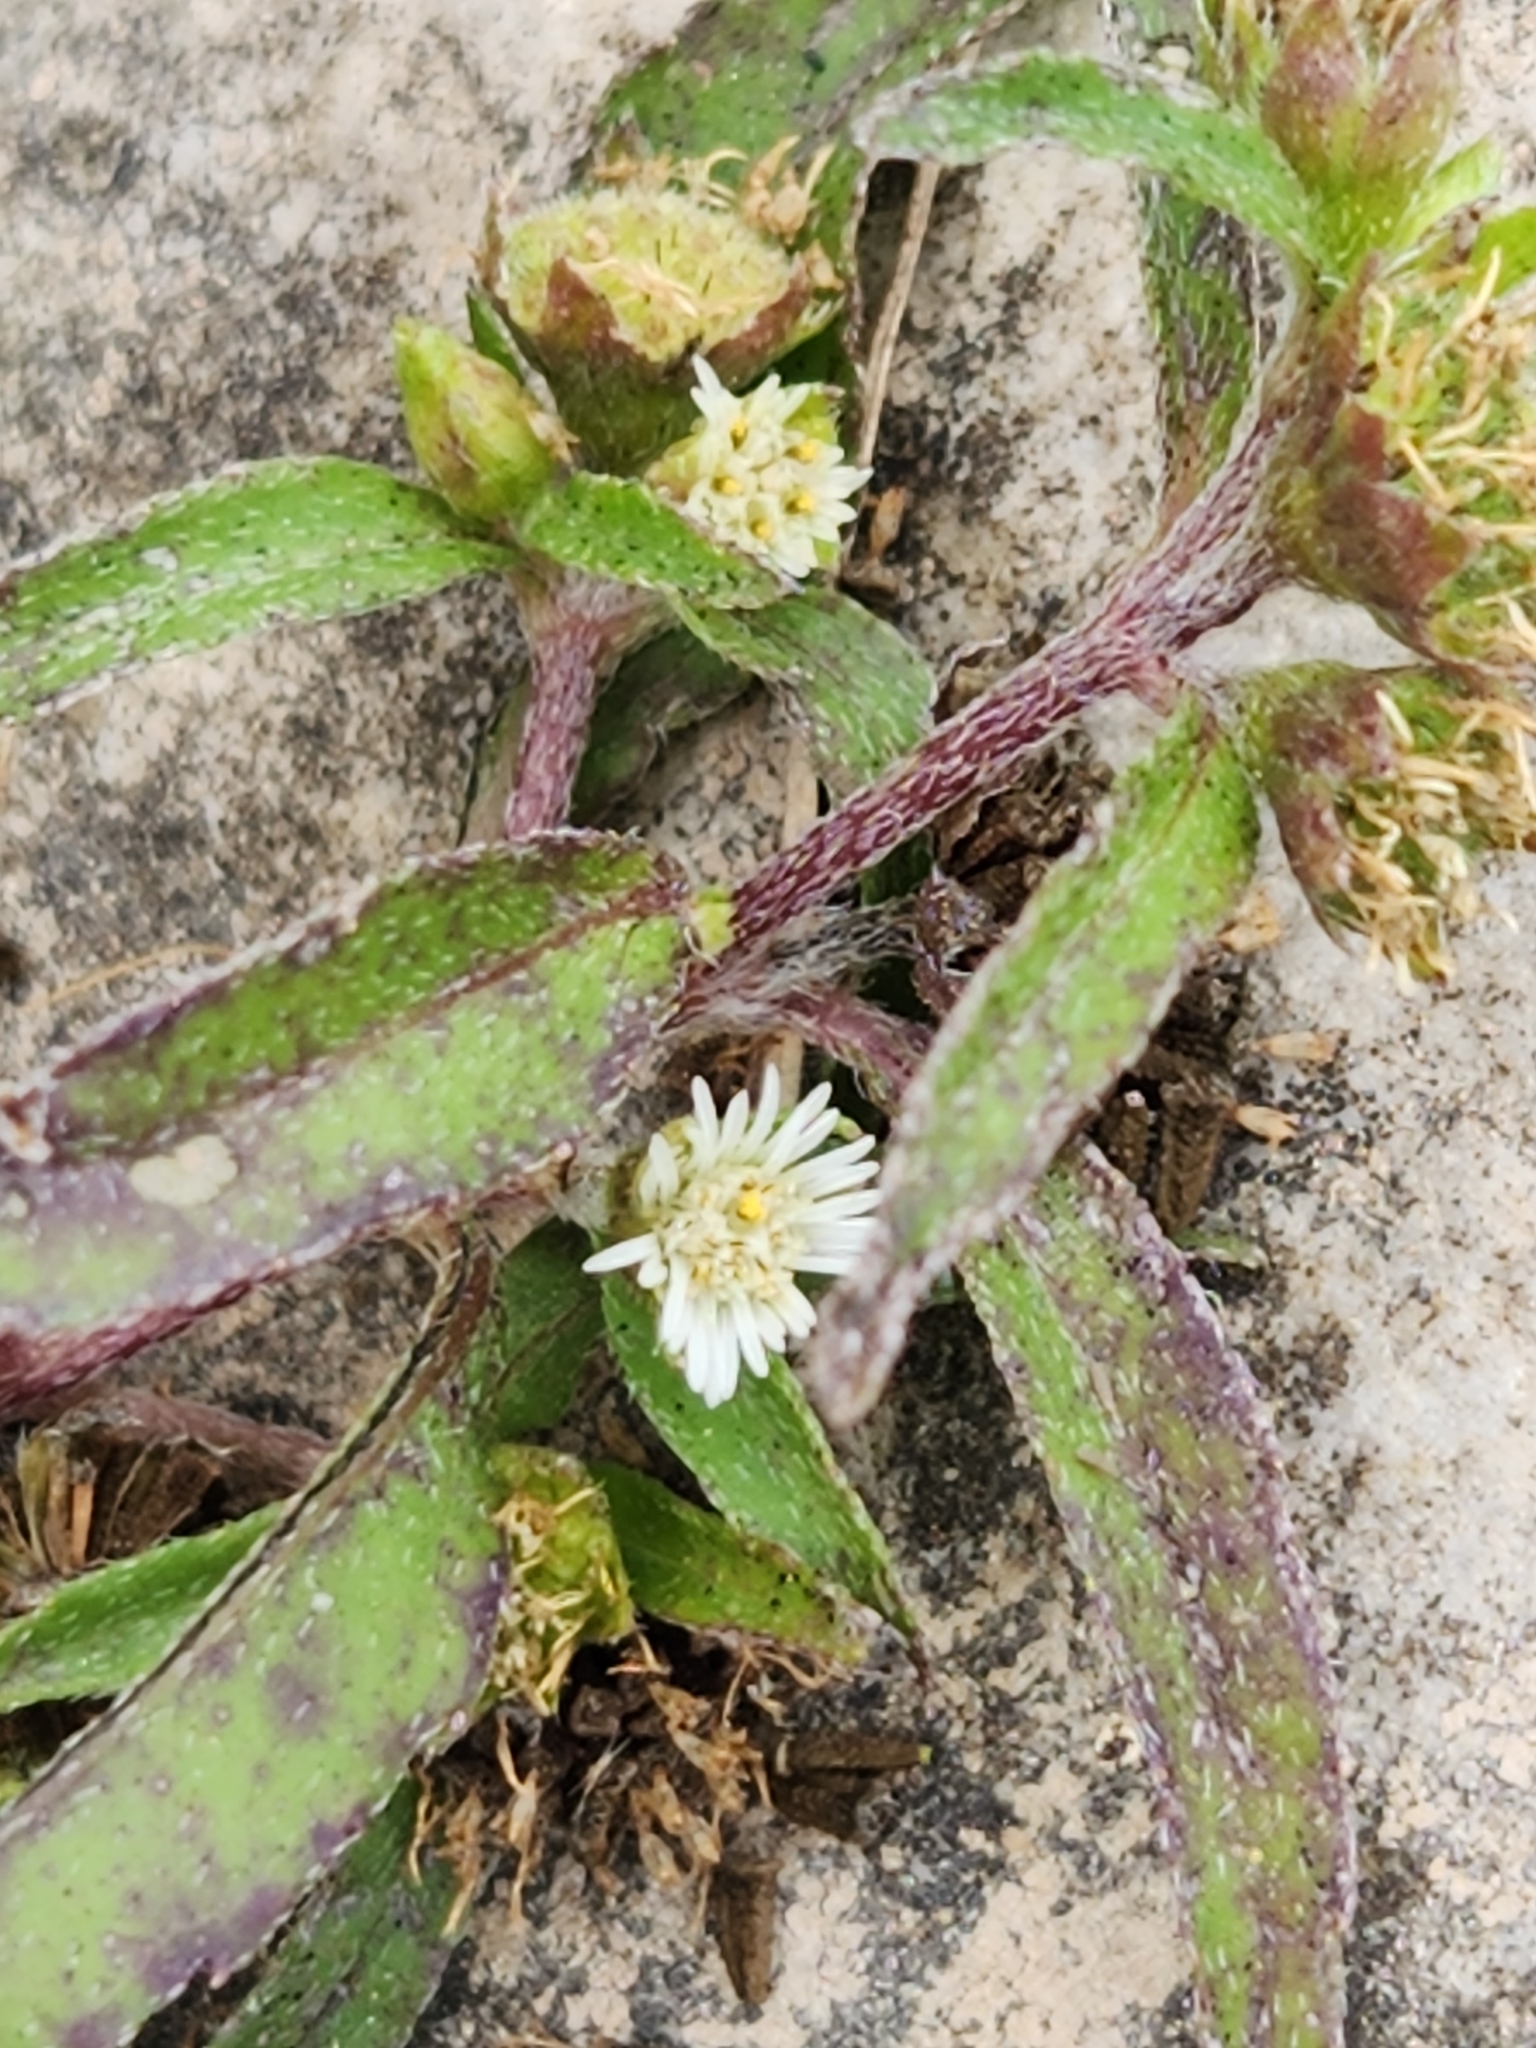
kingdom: Plantae
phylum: Tracheophyta
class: Magnoliopsida
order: Asterales
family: Asteraceae
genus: Eclipta
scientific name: Eclipta prostrata
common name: False daisy
